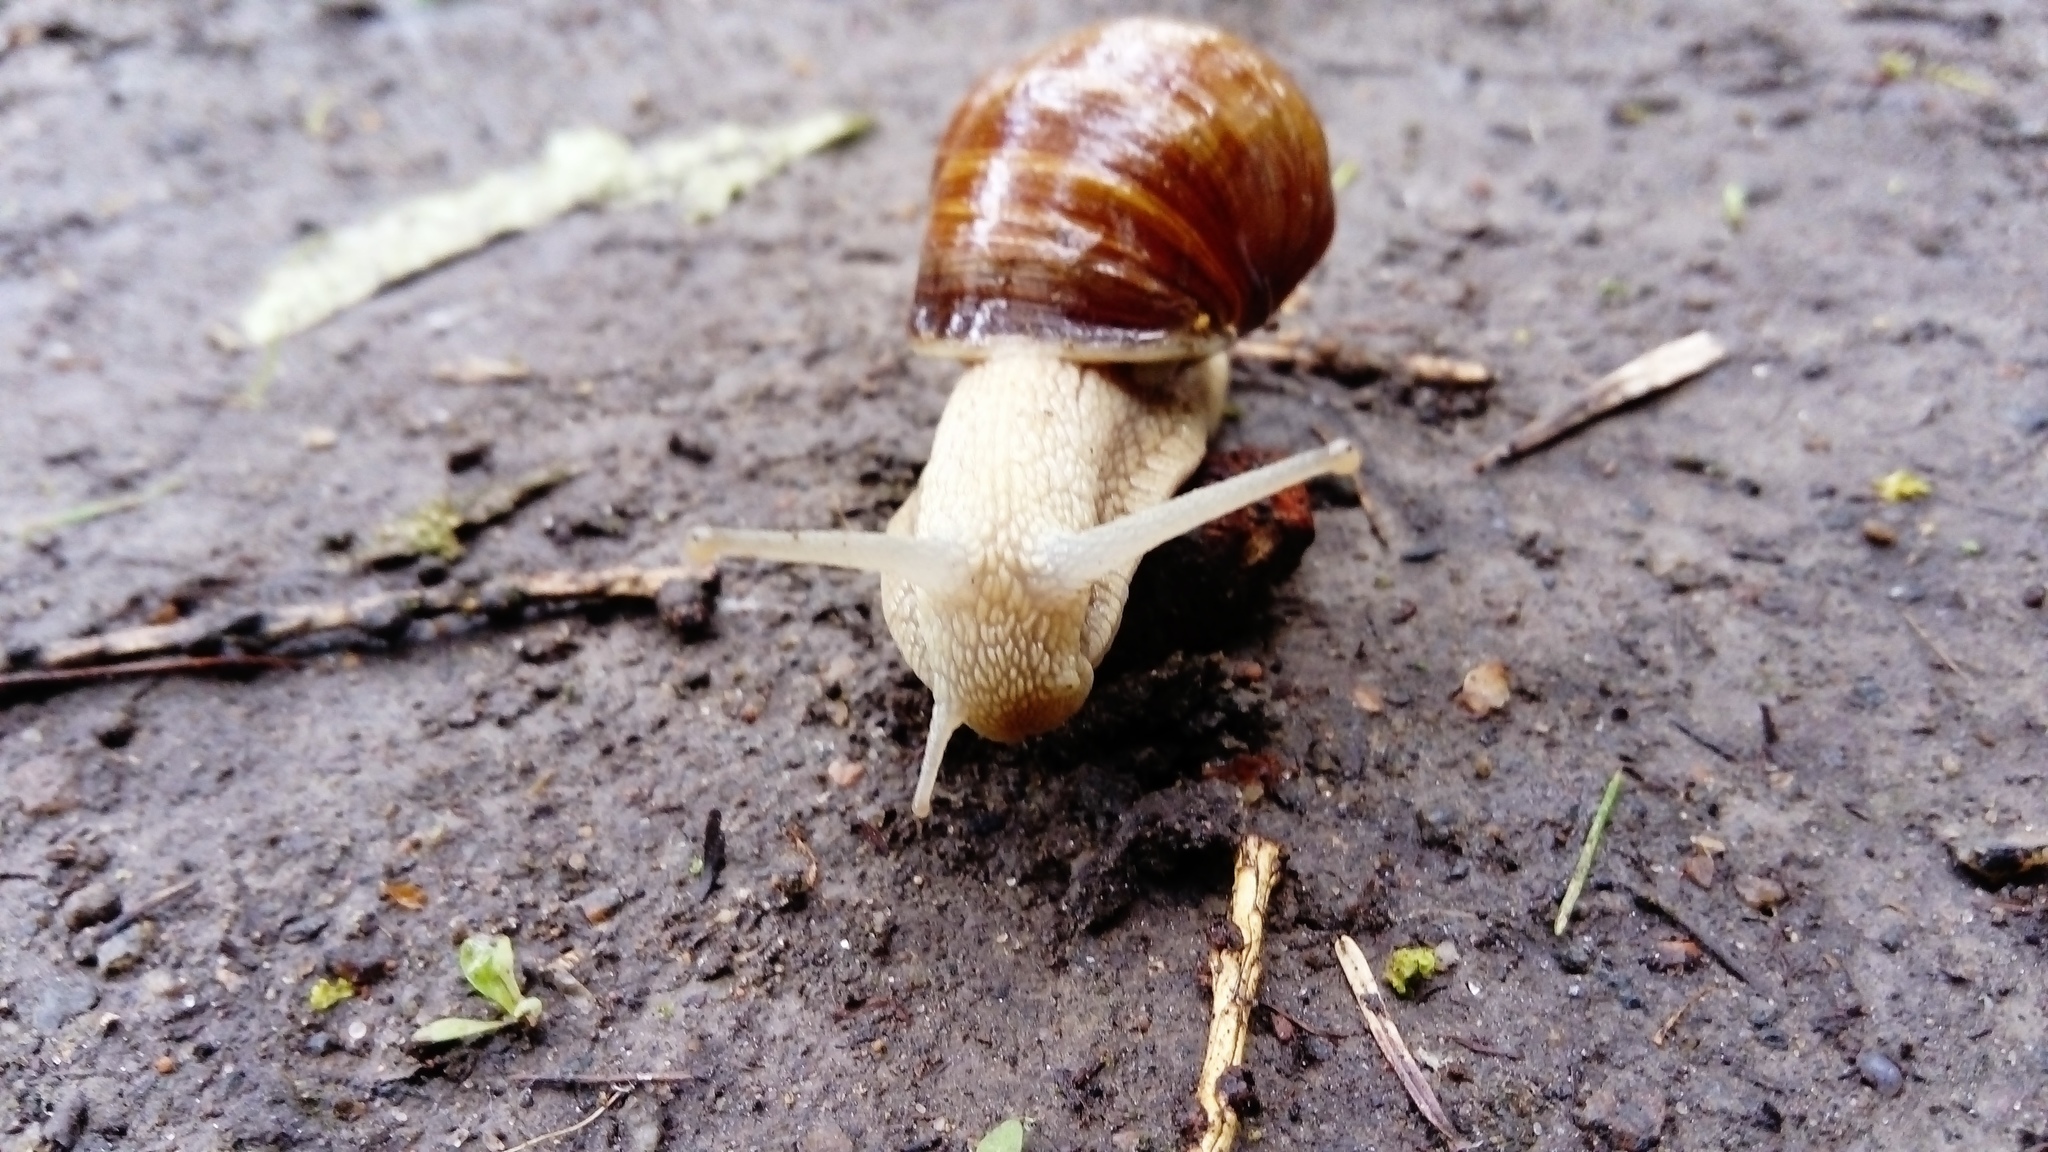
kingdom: Animalia
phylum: Mollusca
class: Gastropoda
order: Stylommatophora
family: Helicidae
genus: Helix
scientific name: Helix pomatia
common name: Roman snail
